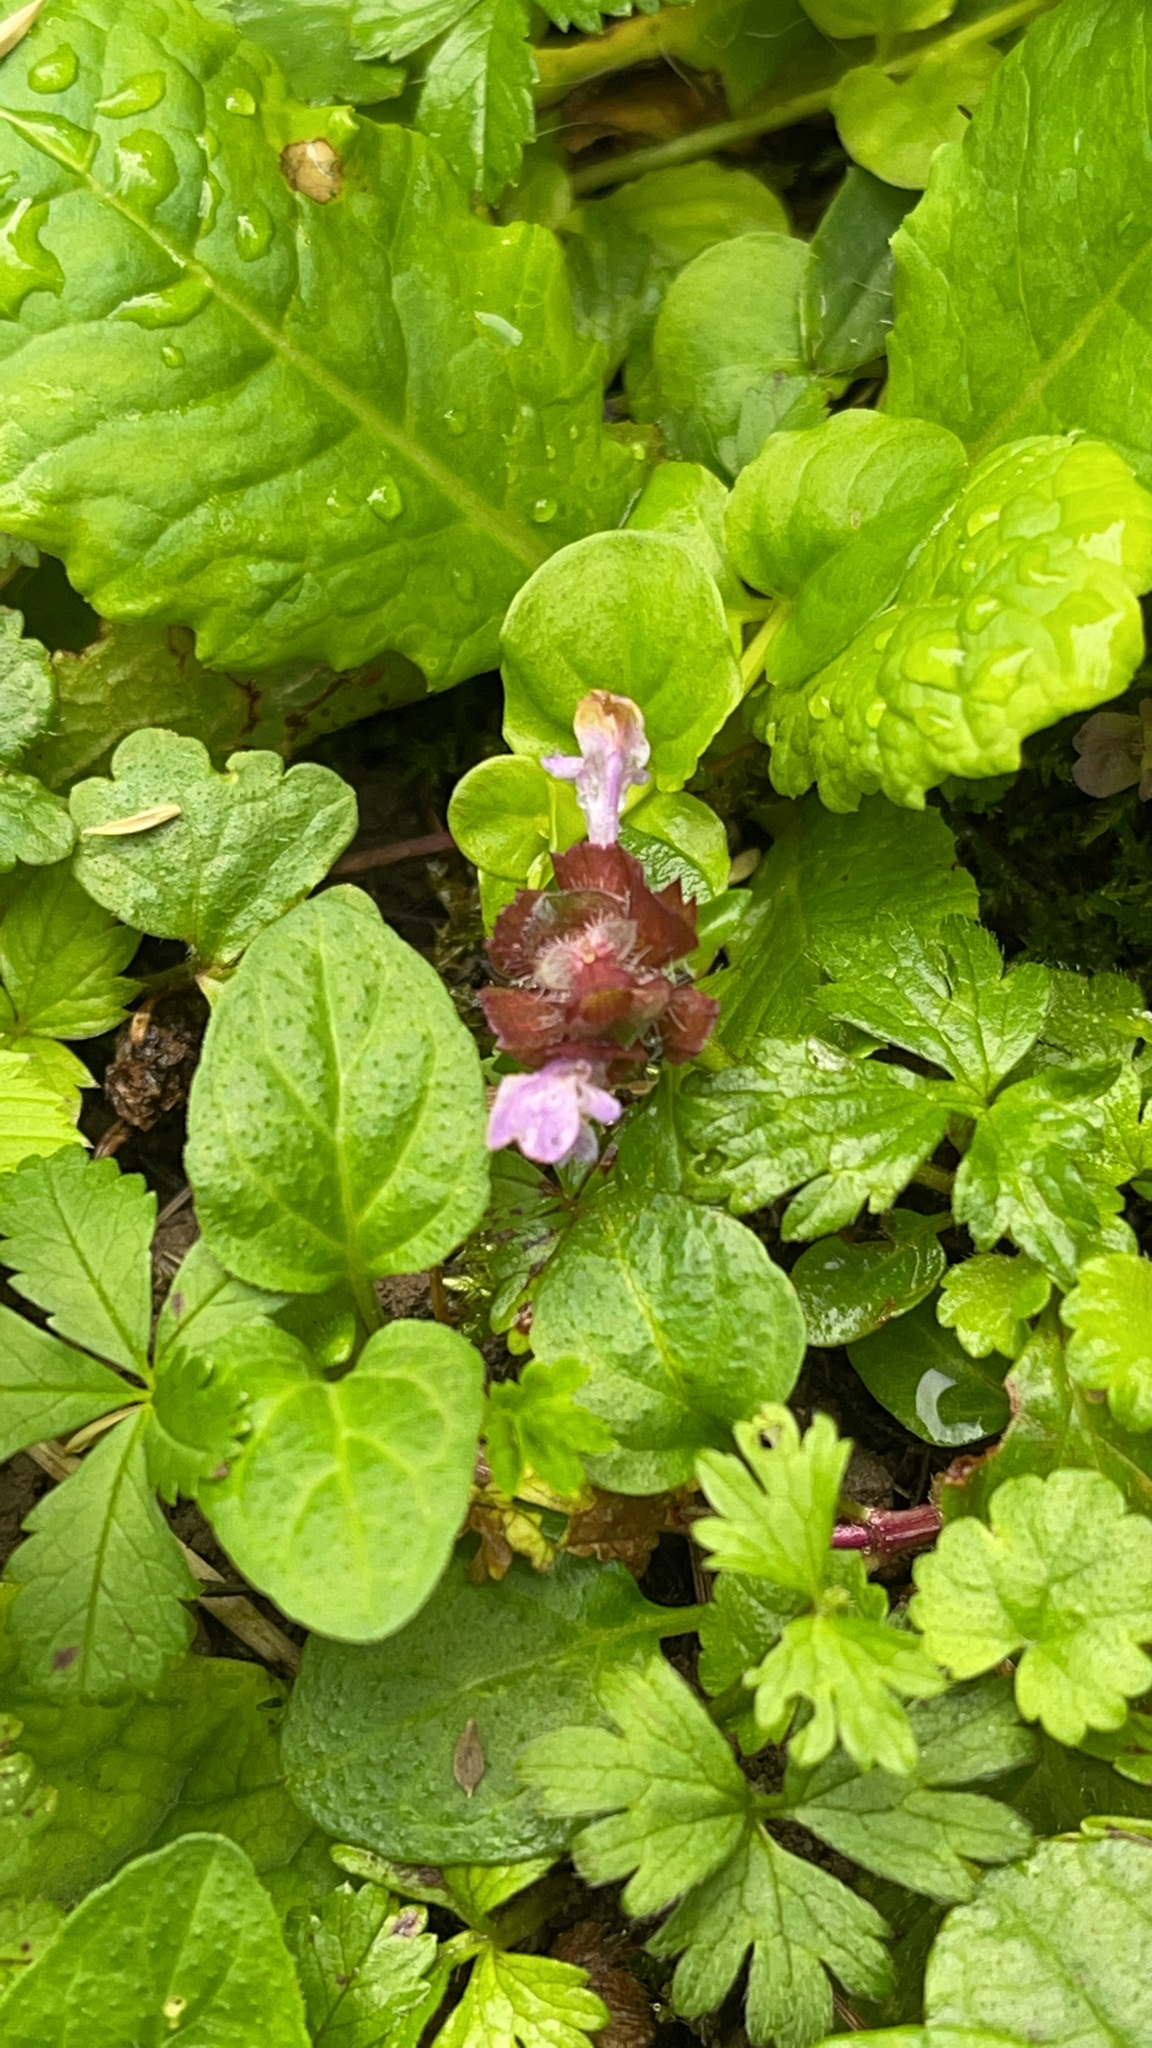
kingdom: Plantae
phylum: Tracheophyta
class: Magnoliopsida
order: Lamiales
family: Lamiaceae
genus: Prunella
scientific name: Prunella vulgaris
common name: Heal-all
